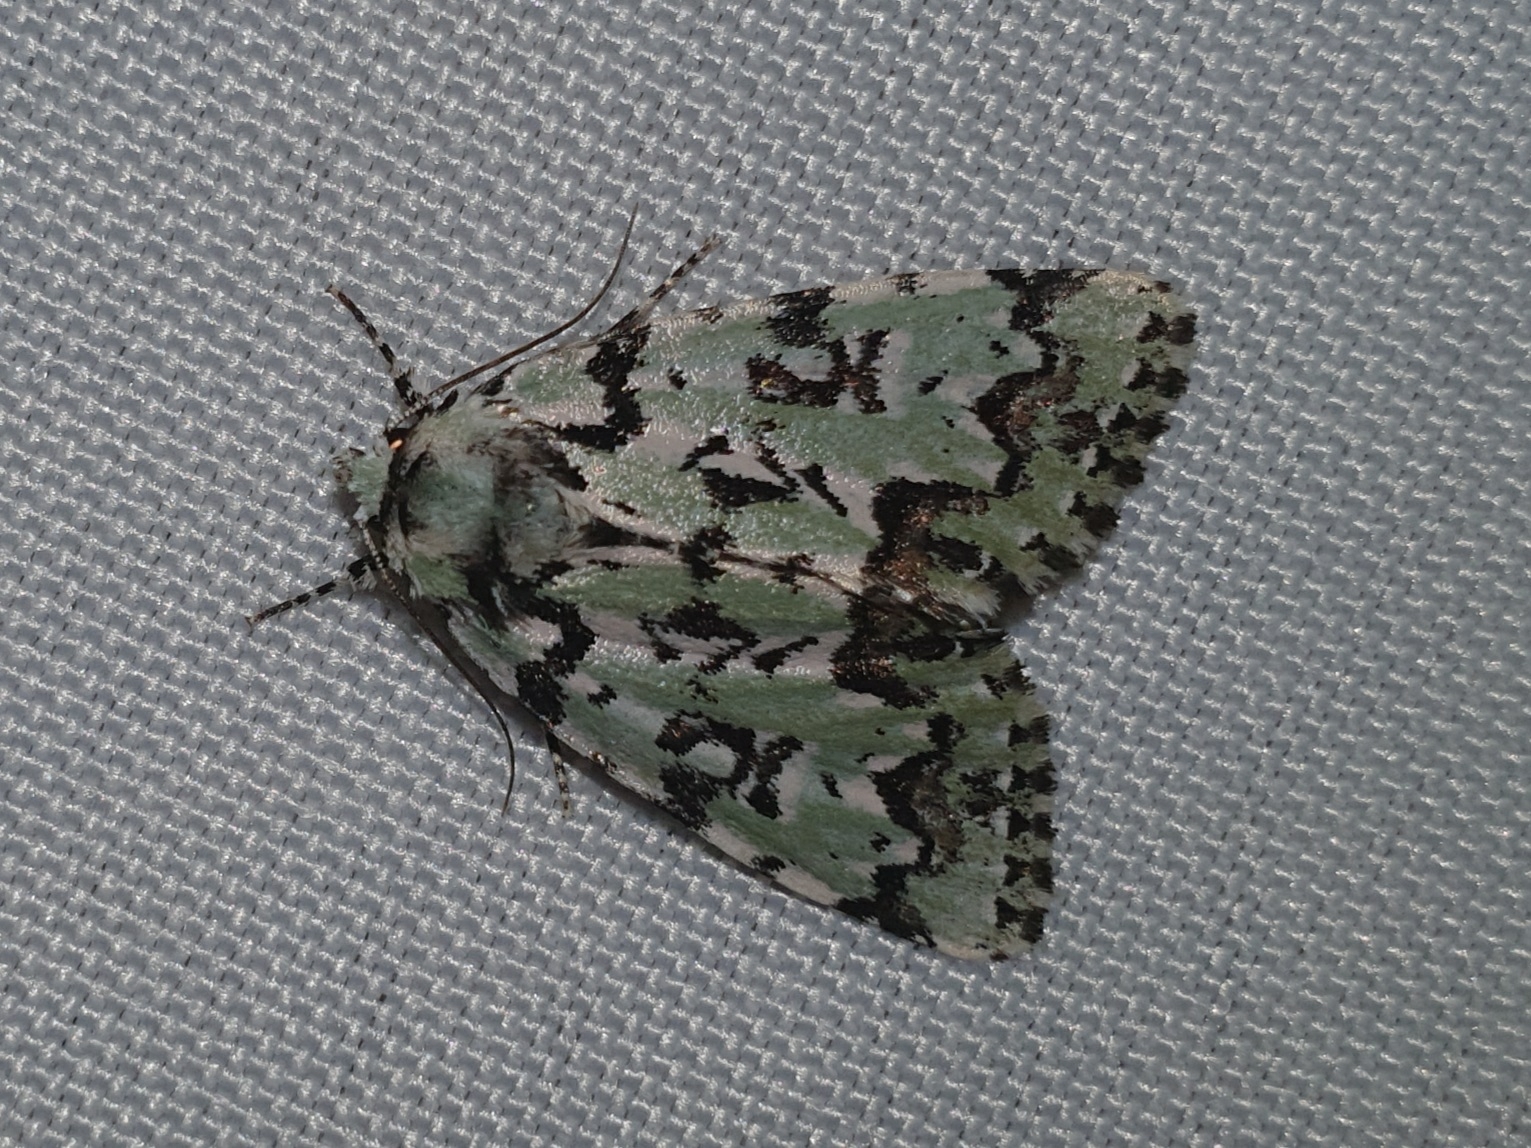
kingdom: Animalia
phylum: Arthropoda
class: Insecta
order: Lepidoptera
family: Noctuidae
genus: Moma
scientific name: Moma alpium
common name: Scarce merveille du jour
